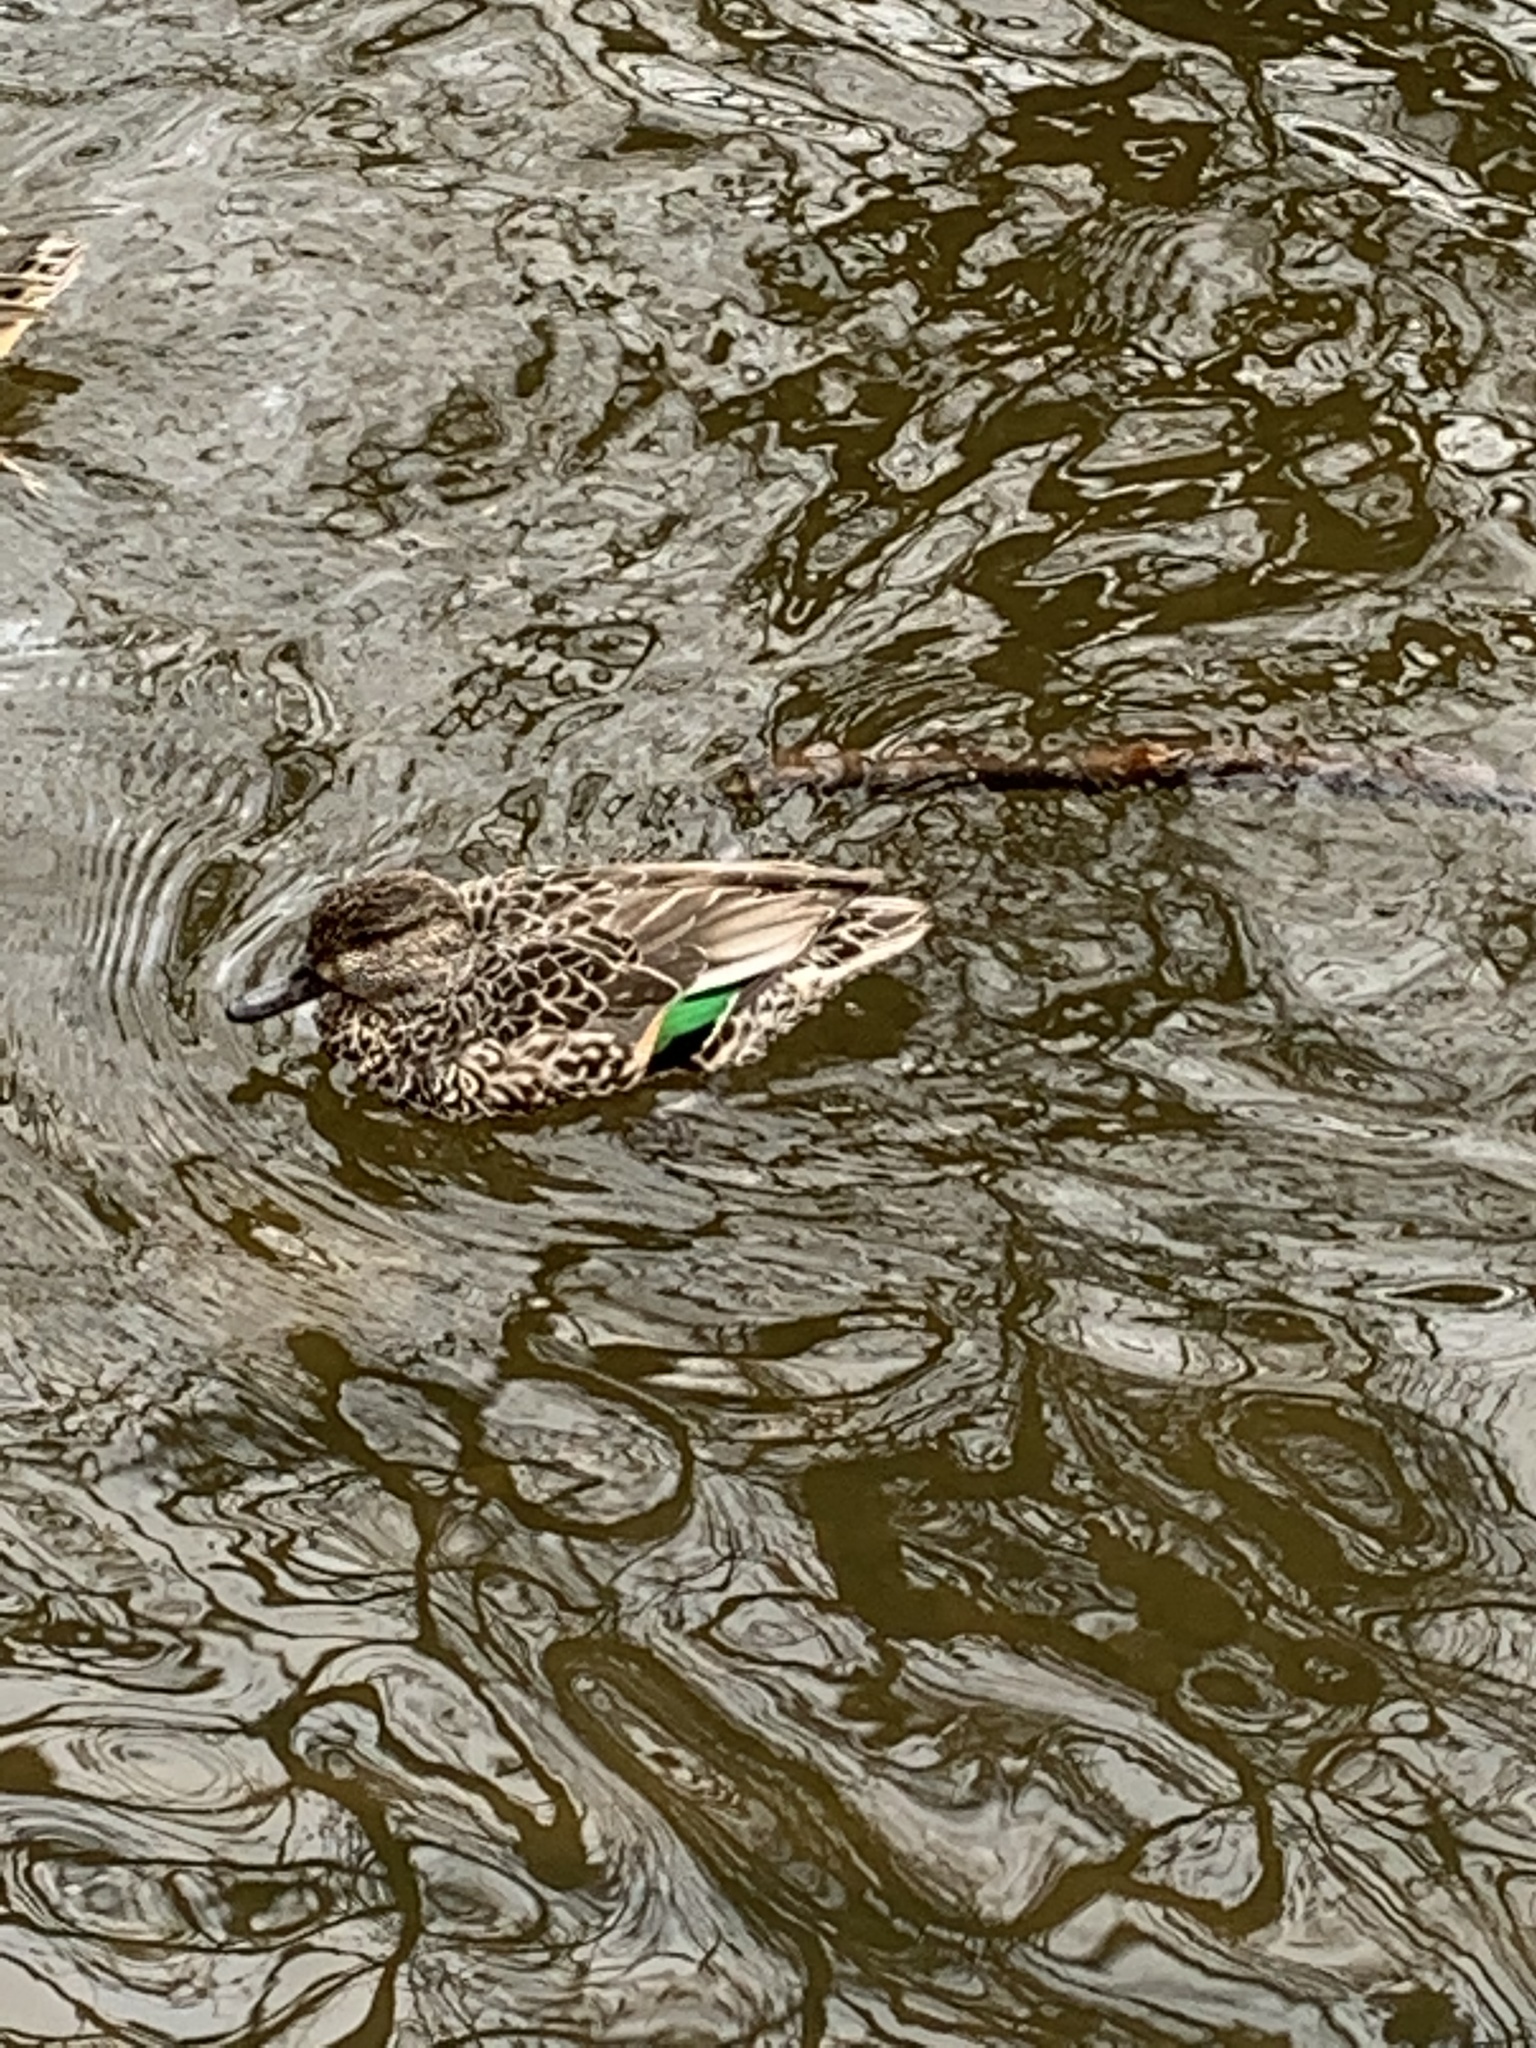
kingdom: Animalia
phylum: Chordata
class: Aves
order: Anseriformes
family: Anatidae
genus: Anas
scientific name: Anas crecca
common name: Eurasian teal
